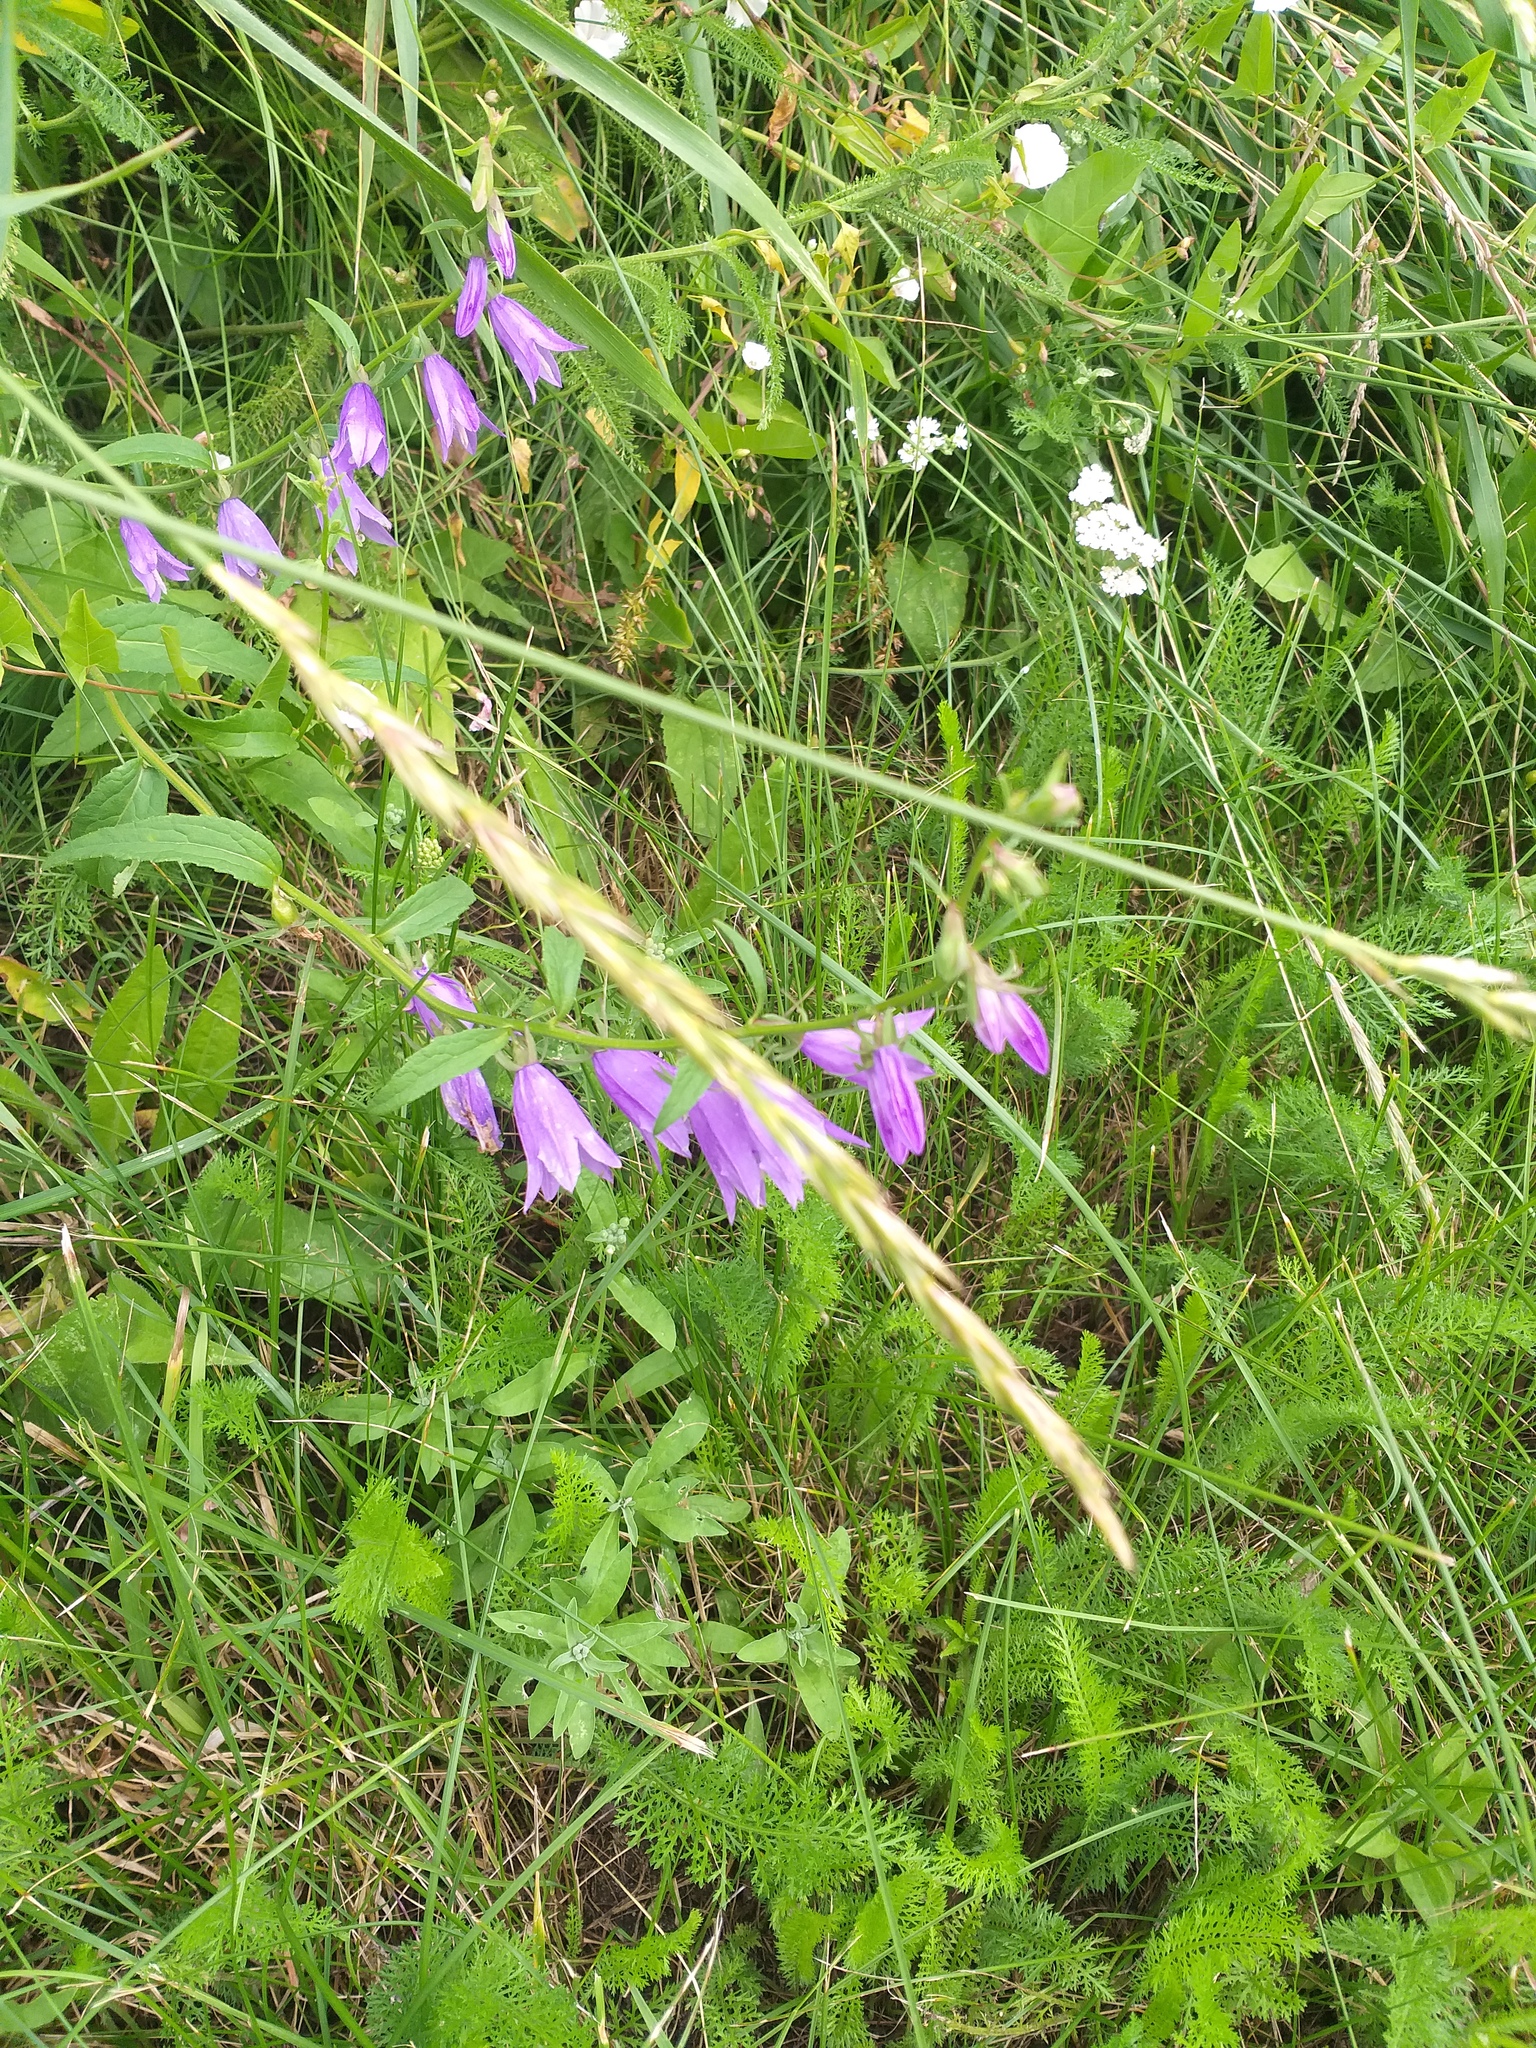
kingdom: Plantae
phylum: Tracheophyta
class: Magnoliopsida
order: Asterales
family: Campanulaceae
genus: Campanula
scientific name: Campanula rapunculoides
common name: Creeping bellflower
